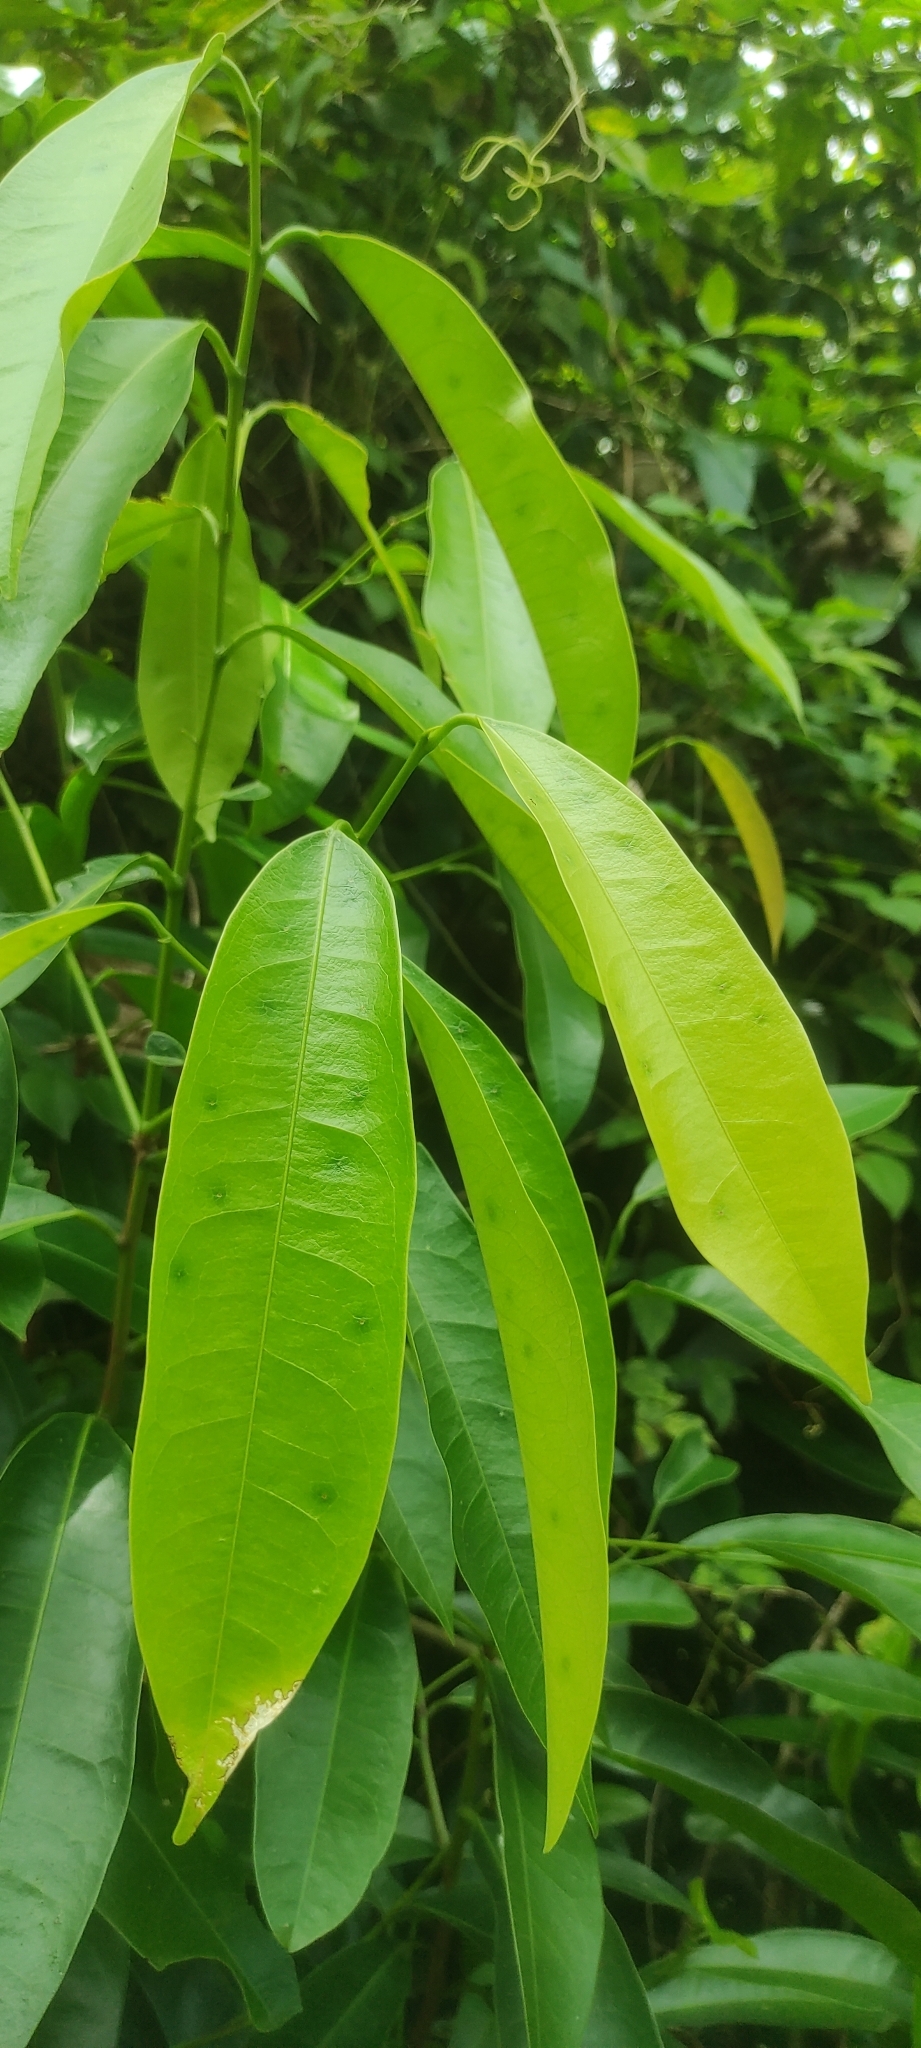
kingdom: Plantae
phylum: Tracheophyta
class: Magnoliopsida
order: Sapindales
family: Simaroubaceae
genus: Samadera
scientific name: Samadera indica
